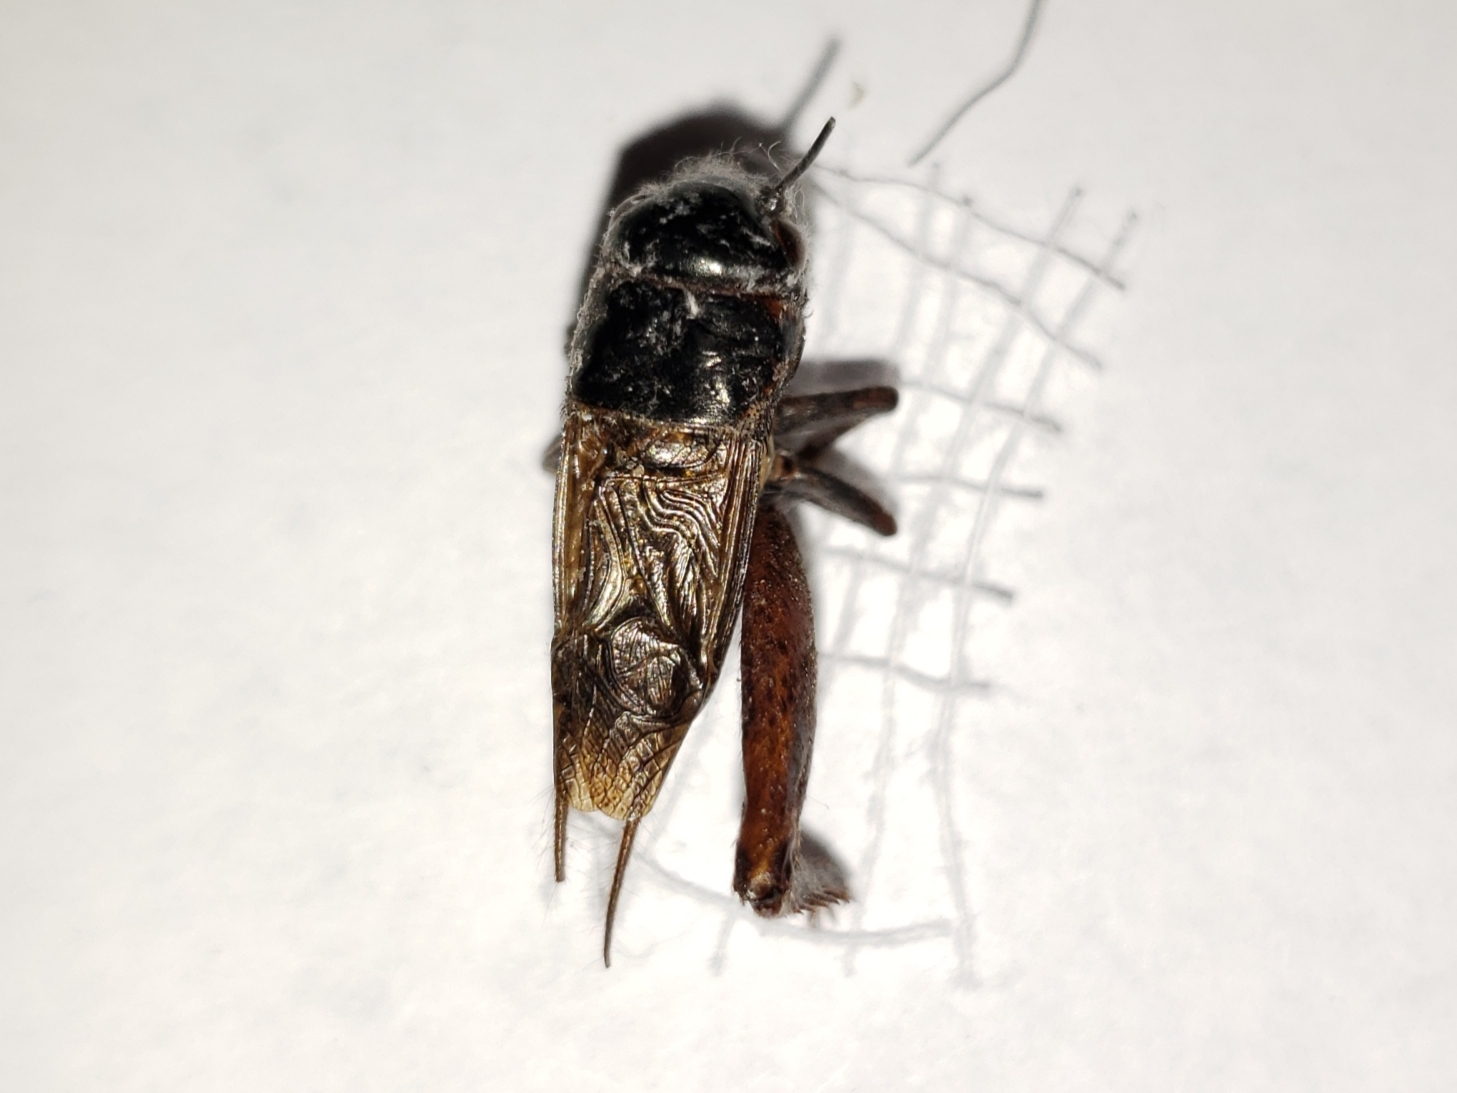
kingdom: Animalia
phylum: Arthropoda
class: Insecta
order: Orthoptera
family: Gryllidae
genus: Gryllus
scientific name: Gryllus rubens
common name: Southeastern field cricket
